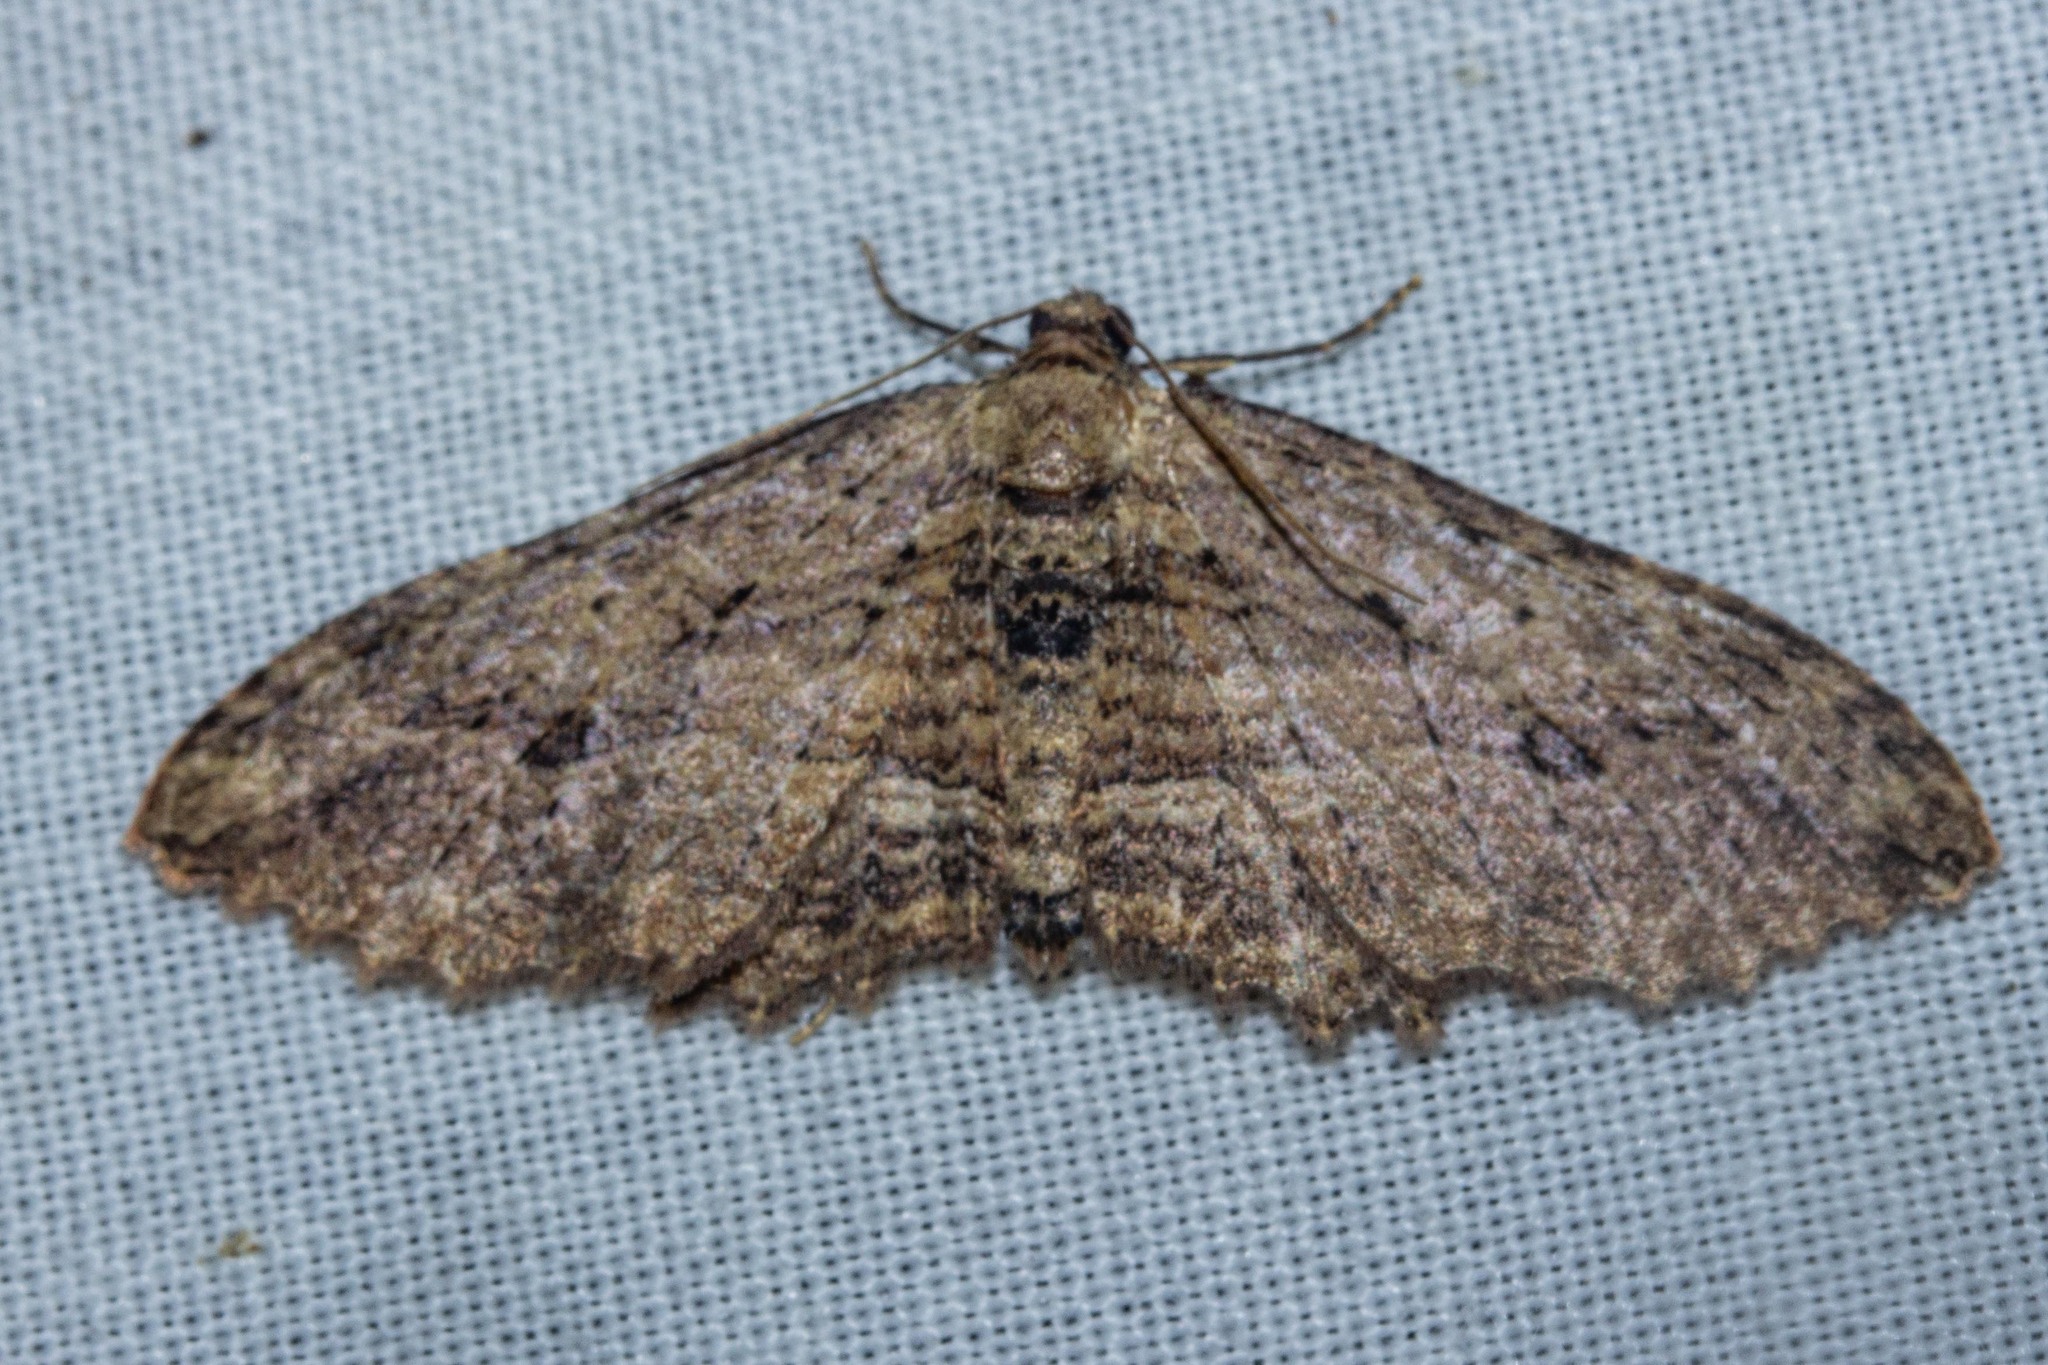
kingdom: Animalia
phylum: Arthropoda
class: Insecta
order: Lepidoptera
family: Geometridae
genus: Austrocidaria
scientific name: Austrocidaria bipartita
